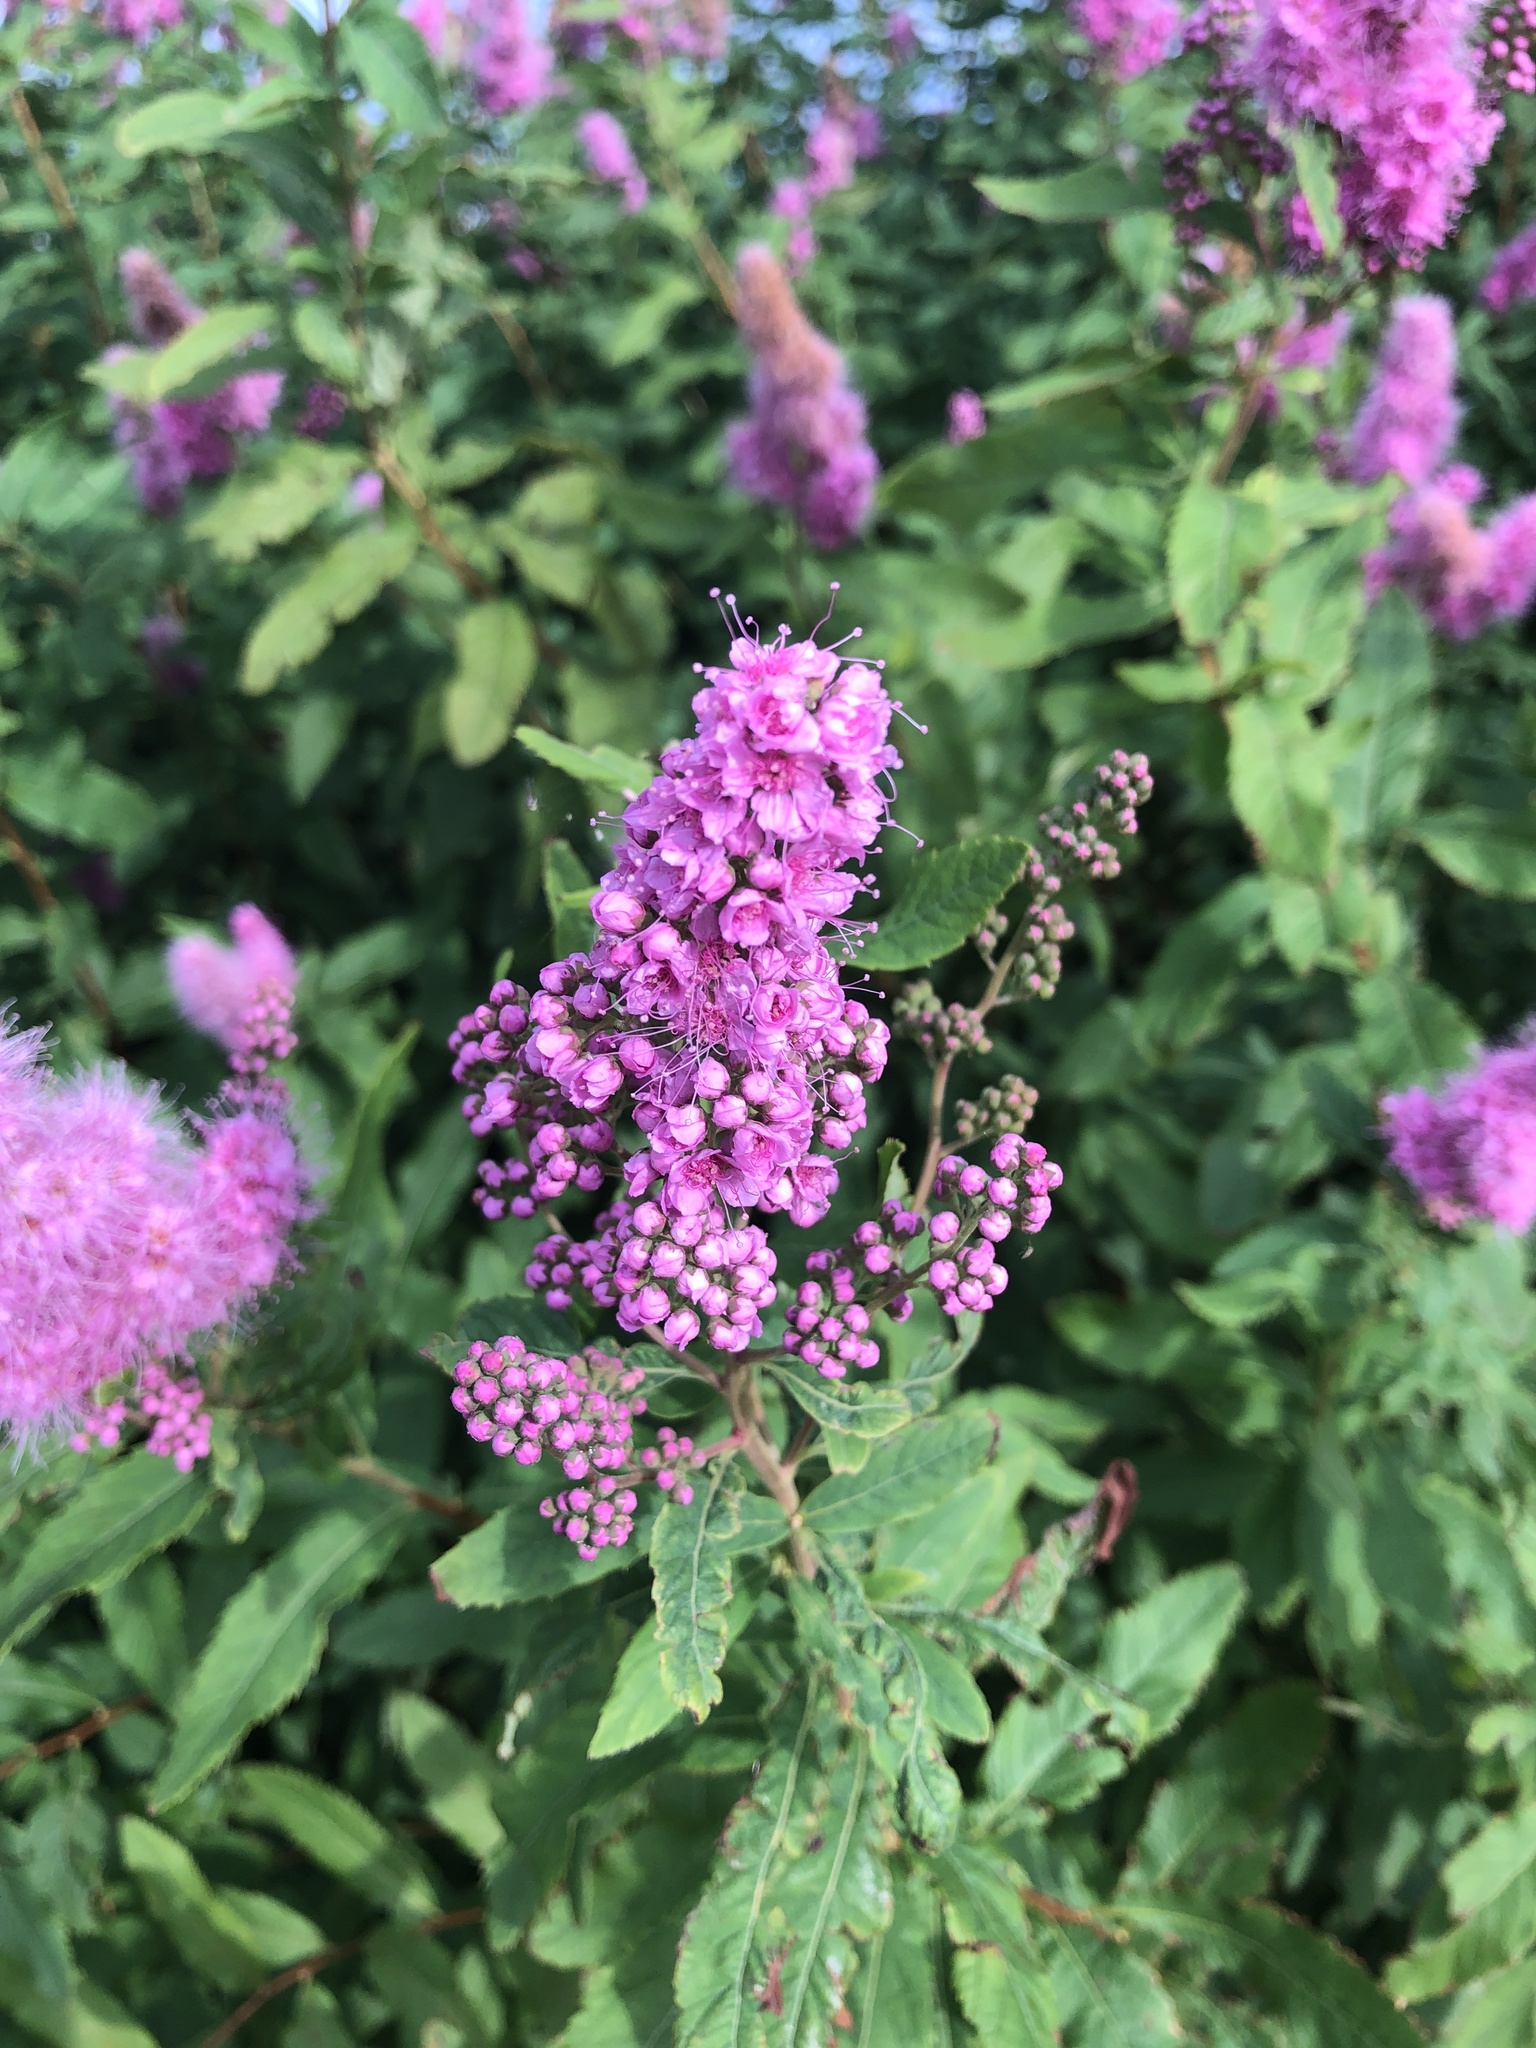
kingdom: Plantae
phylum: Tracheophyta
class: Magnoliopsida
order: Rosales
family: Rosaceae
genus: Spiraea
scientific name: Spiraea douglasii
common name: Steeplebush
